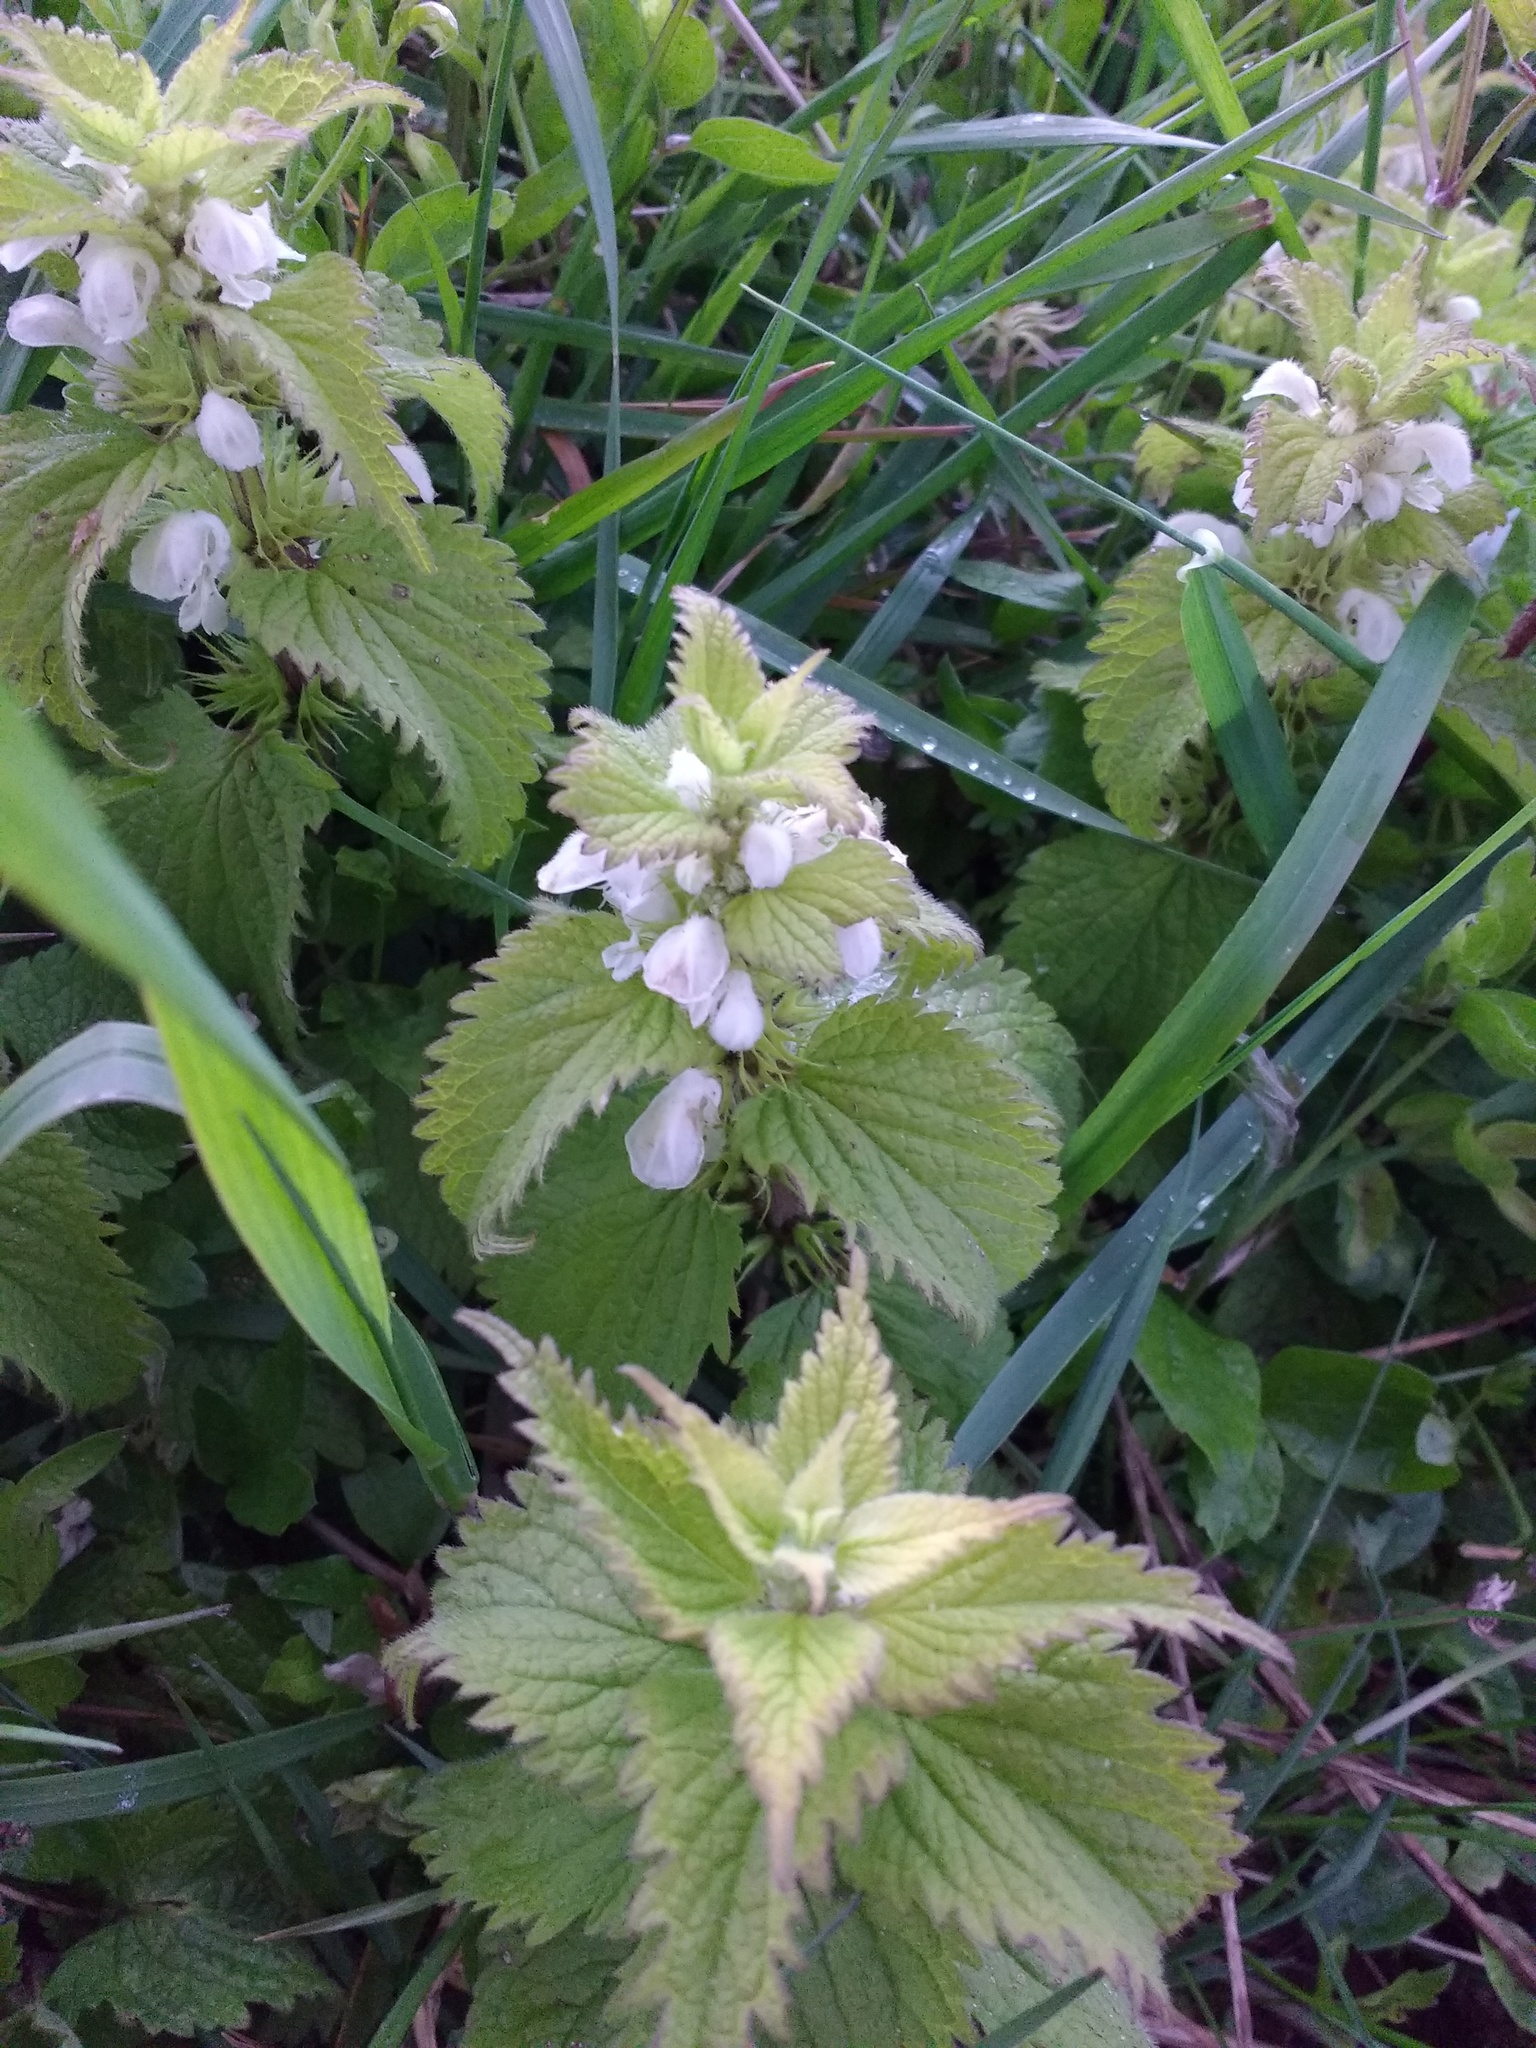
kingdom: Plantae
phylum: Tracheophyta
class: Magnoliopsida
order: Lamiales
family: Lamiaceae
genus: Lamium
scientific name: Lamium album
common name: White dead-nettle
